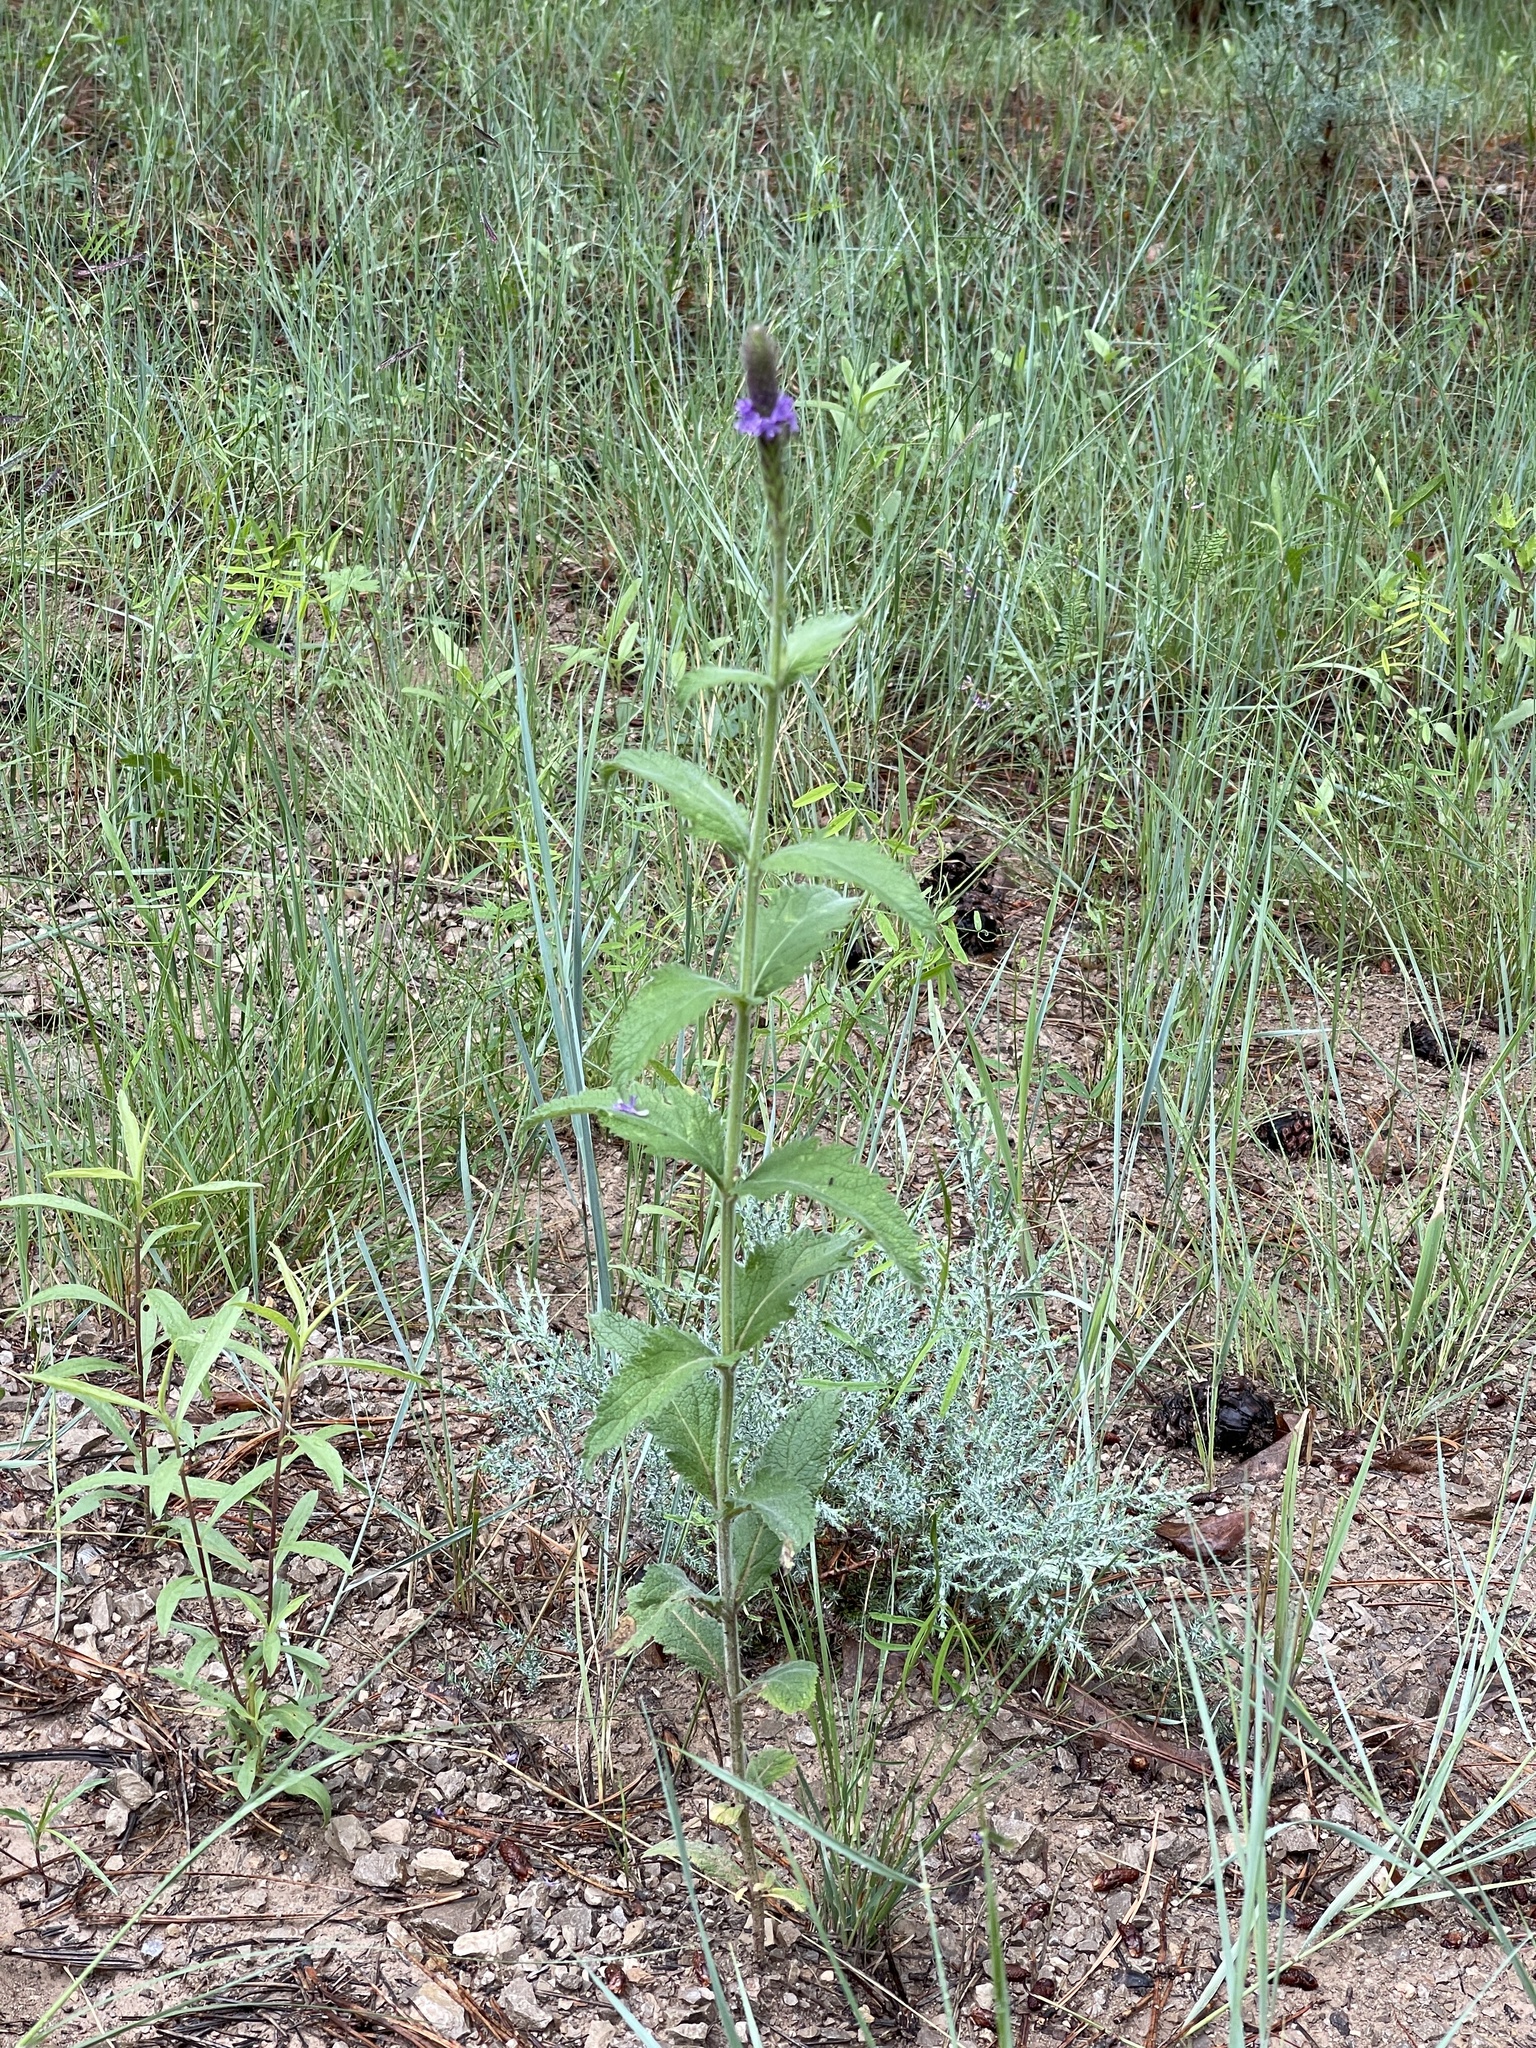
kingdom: Plantae
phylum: Tracheophyta
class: Magnoliopsida
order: Lamiales
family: Verbenaceae
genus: Verbena
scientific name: Verbena macdougalii
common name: New mexico vervain
